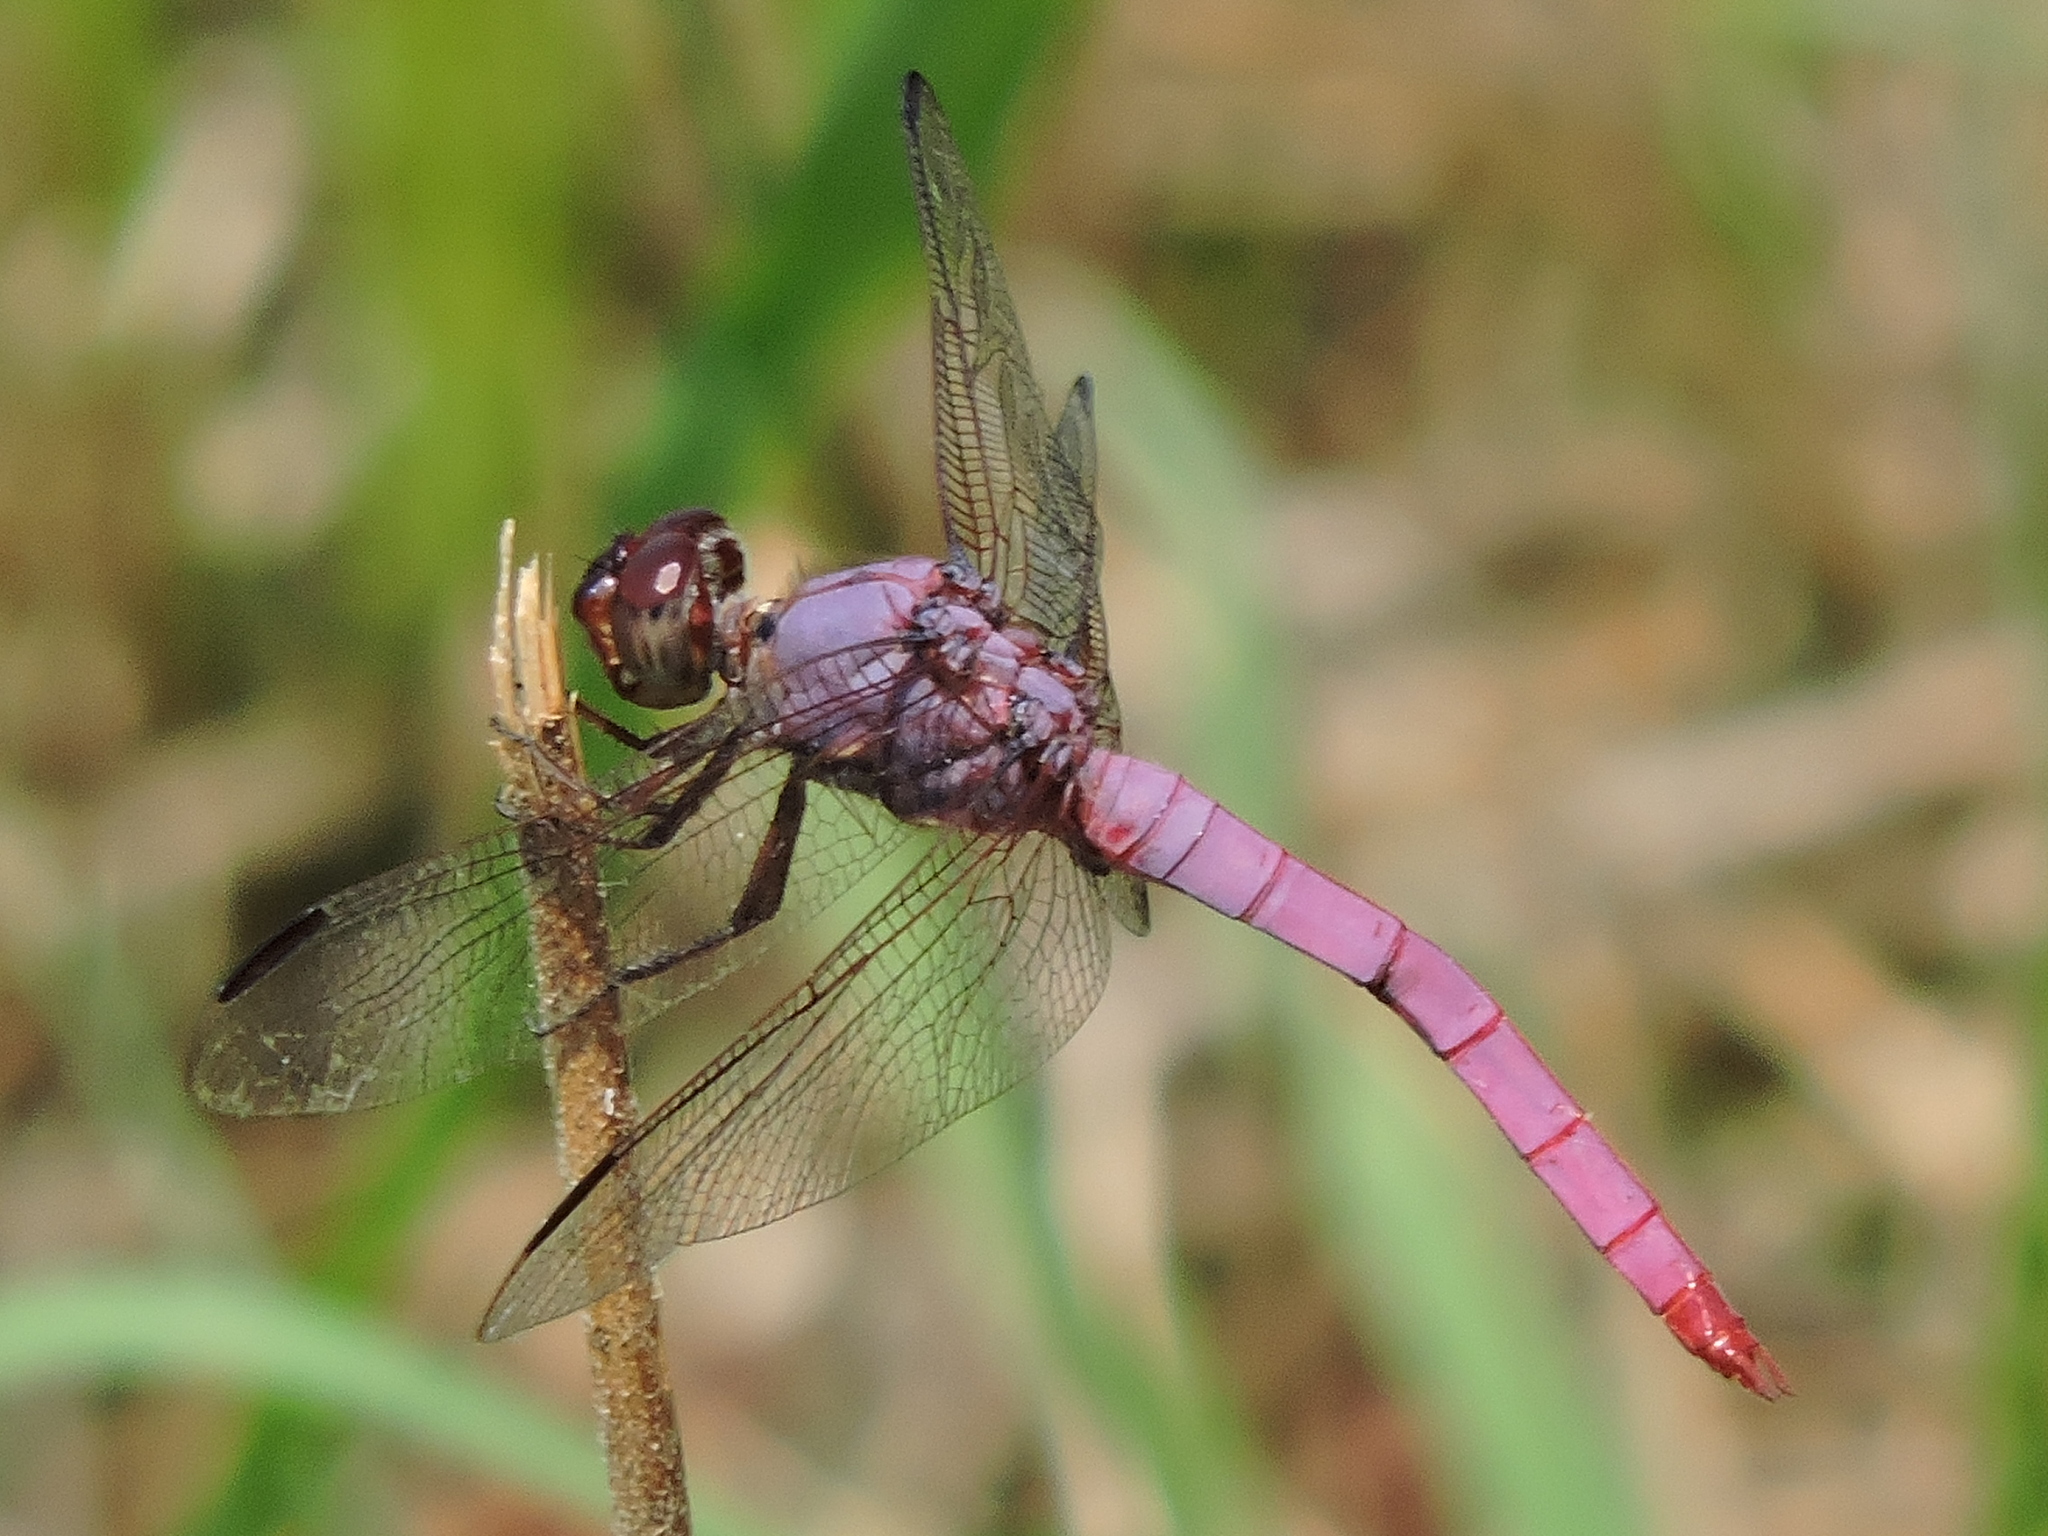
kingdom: Animalia
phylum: Arthropoda
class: Insecta
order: Odonata
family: Libellulidae
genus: Orthemis
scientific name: Orthemis ferruginea
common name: Roseate skimmer
